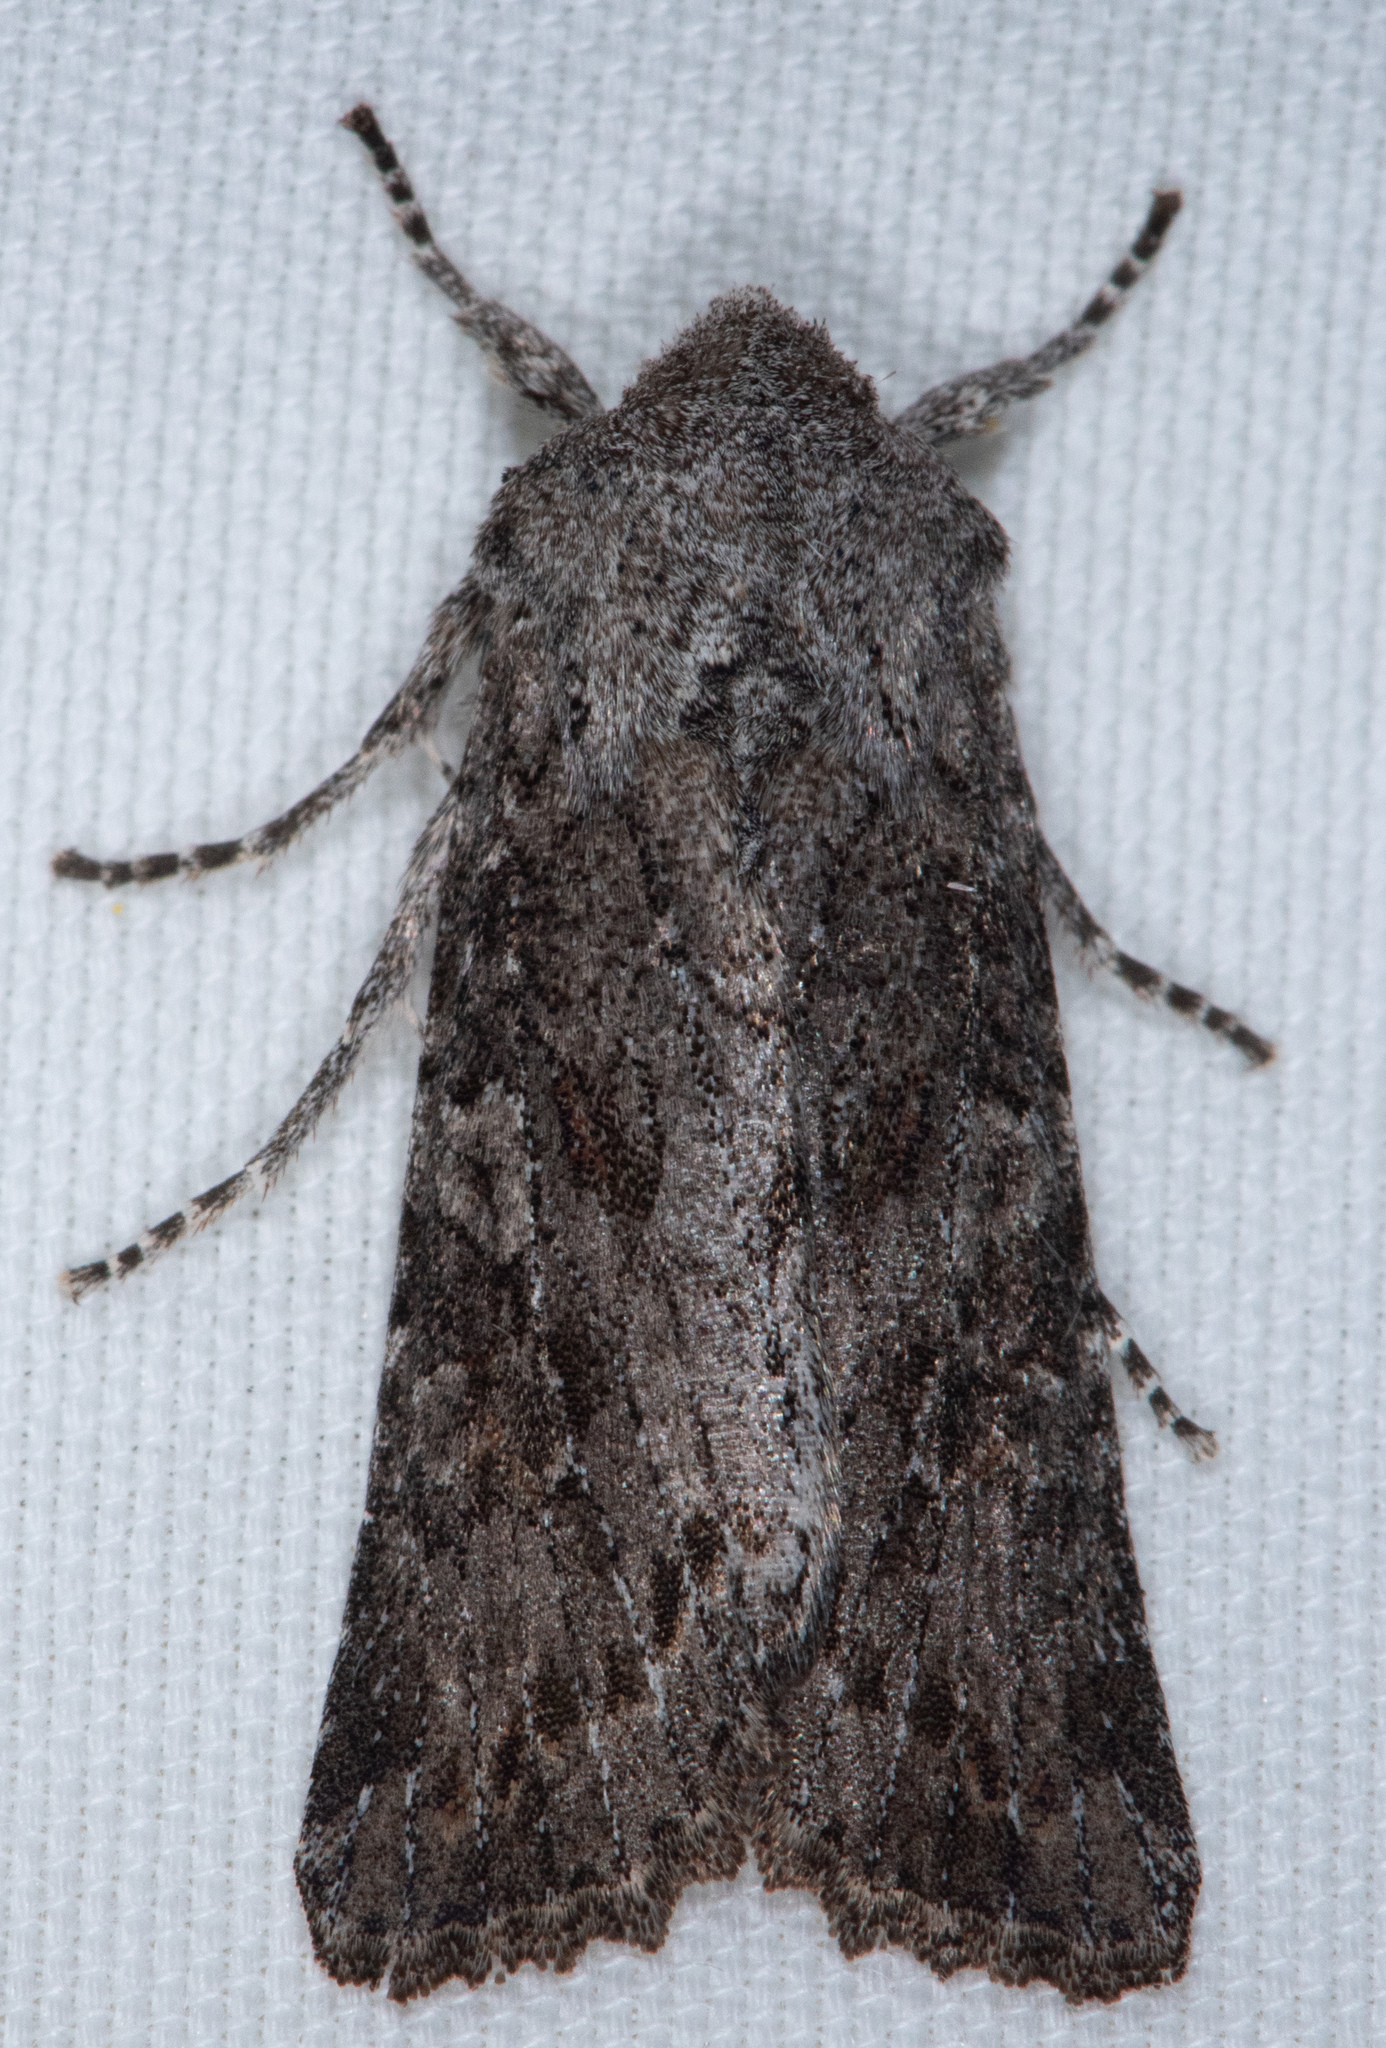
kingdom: Animalia
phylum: Arthropoda
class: Insecta
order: Lepidoptera
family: Noctuidae
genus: Egira
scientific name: Egira curialis
